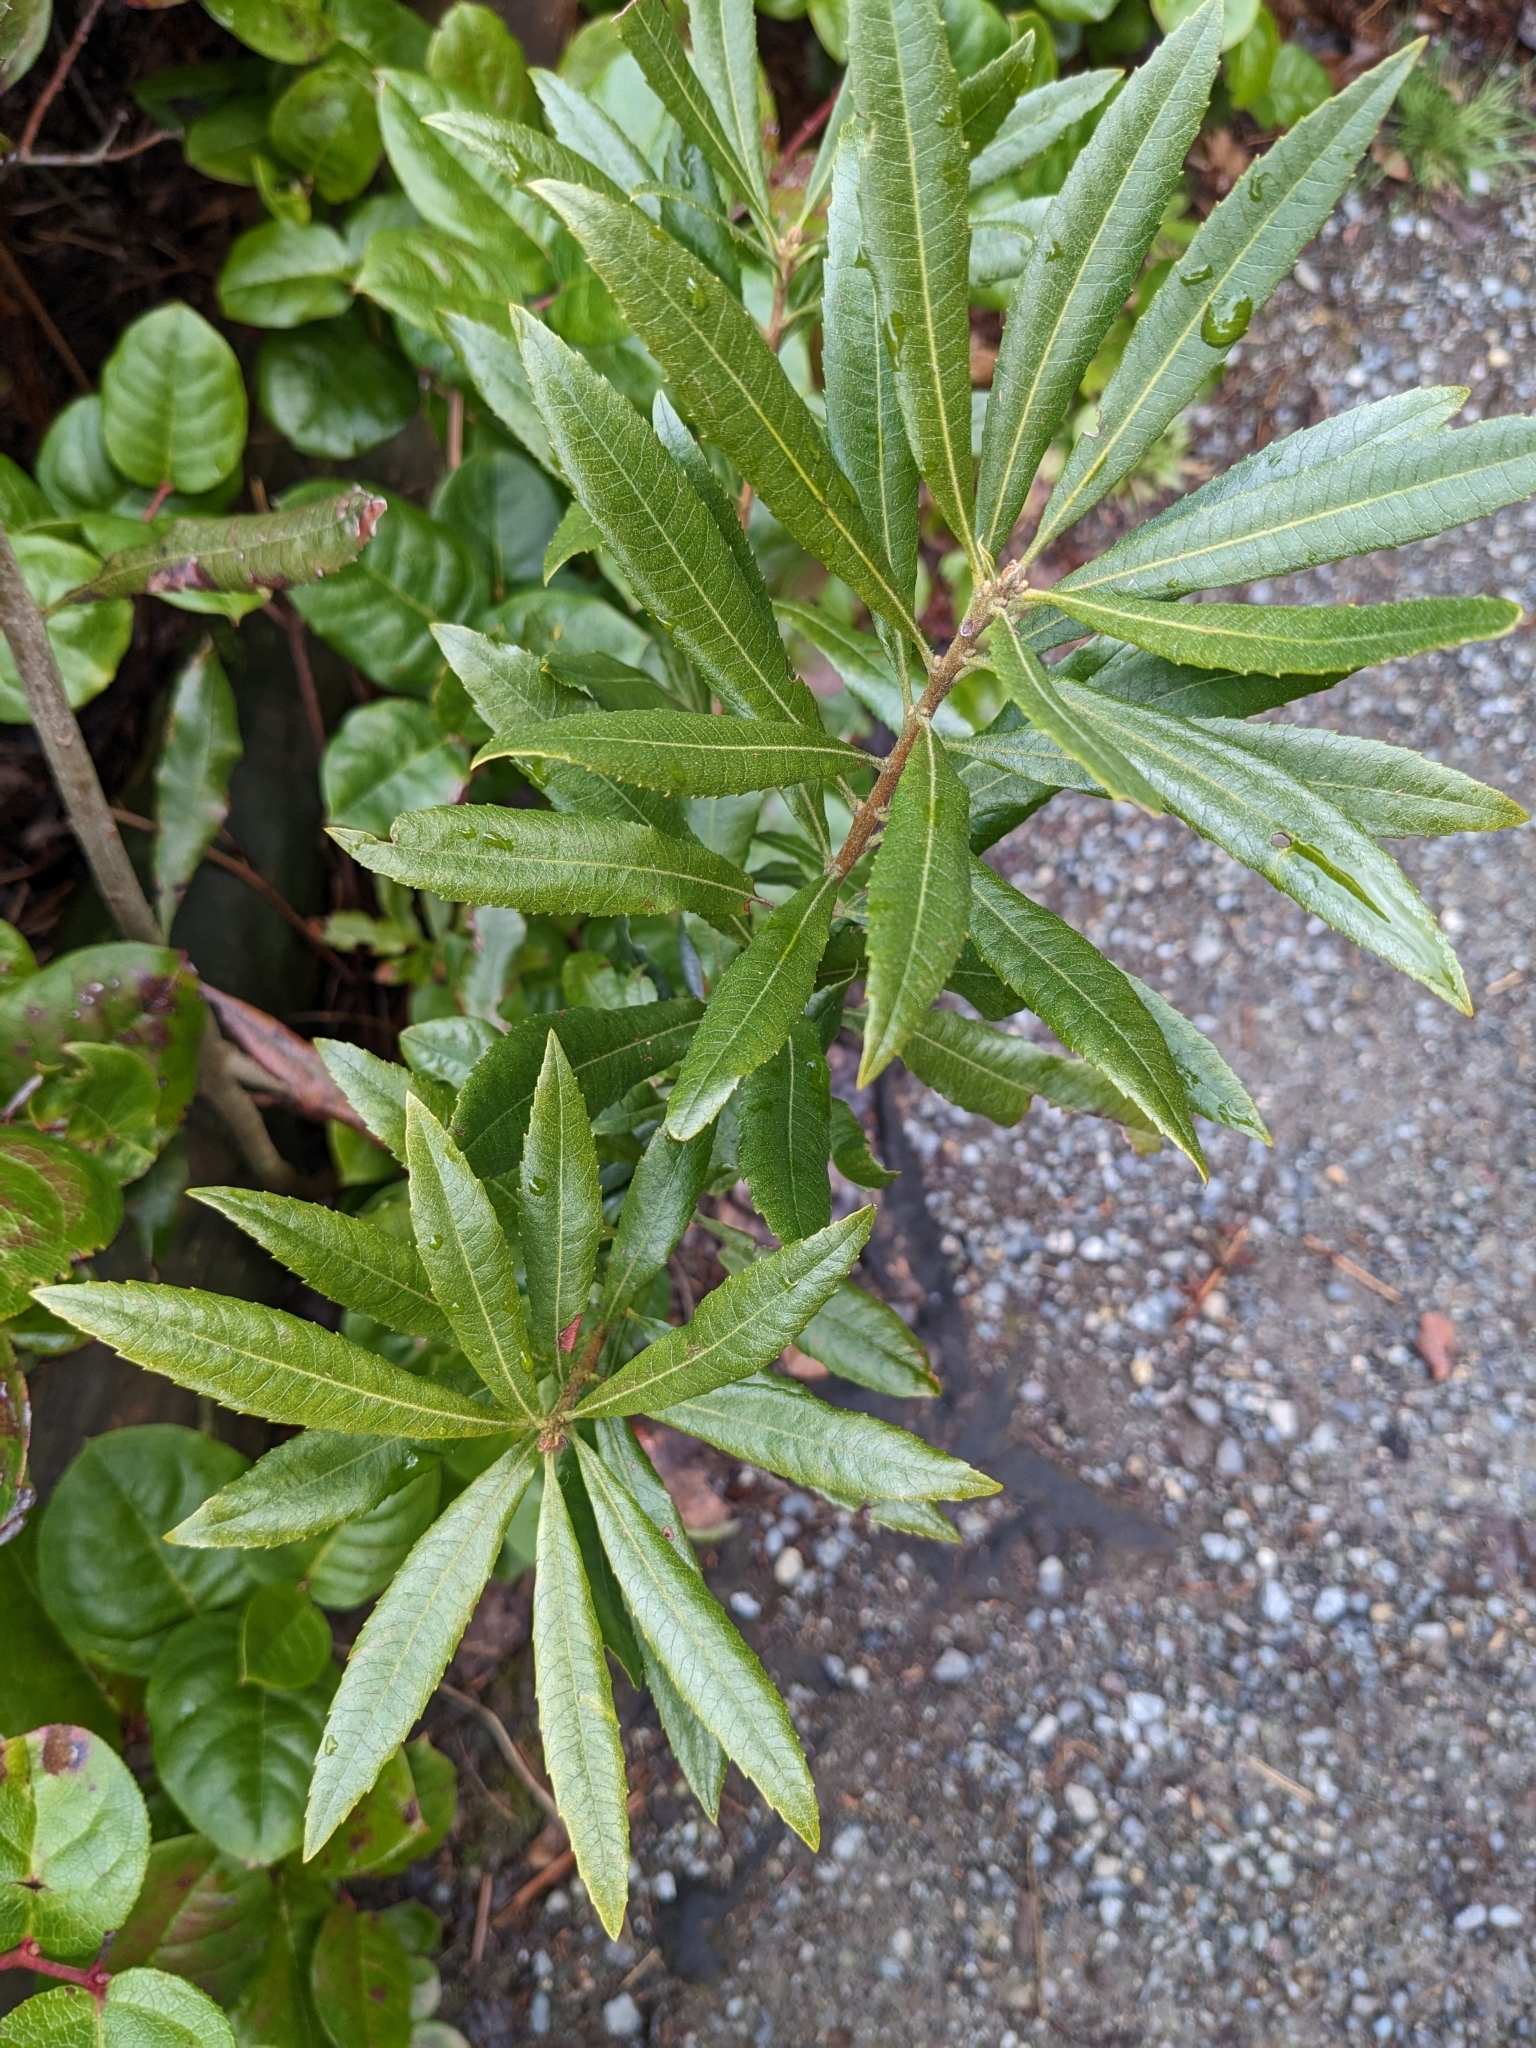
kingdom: Plantae
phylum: Tracheophyta
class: Magnoliopsida
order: Fagales
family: Myricaceae
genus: Morella
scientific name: Morella californica
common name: California wax-myrtle
